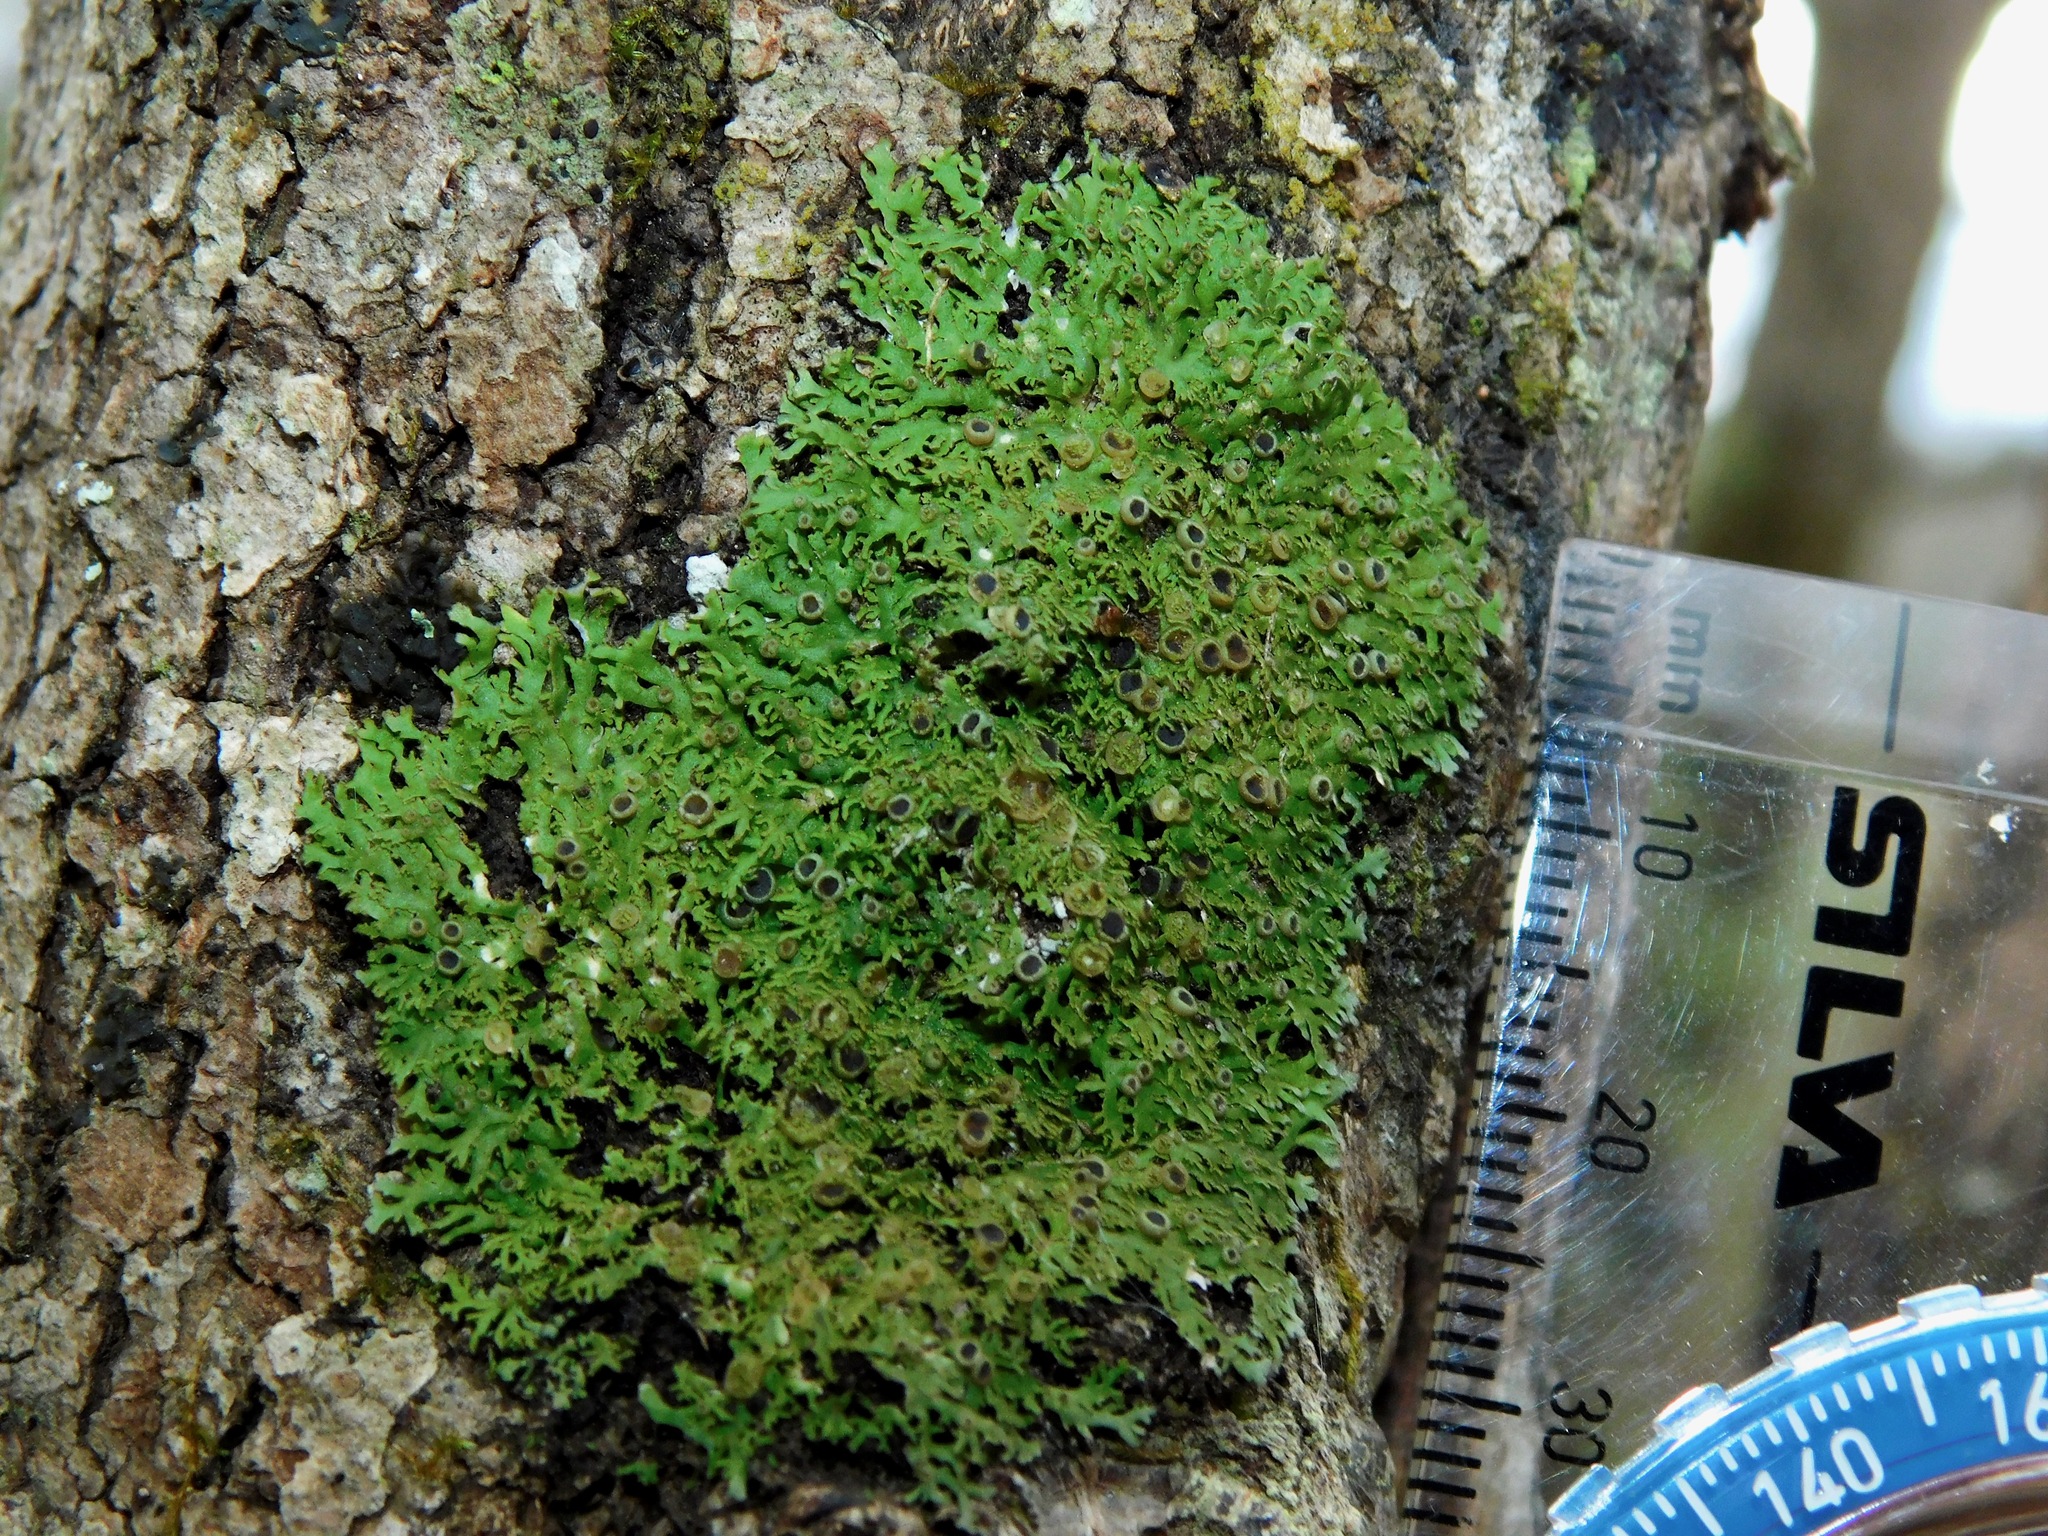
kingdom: Fungi
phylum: Ascomycota
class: Lecanoromycetes
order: Caliciales
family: Physciaceae
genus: Kurokawia
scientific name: Kurokawia palmulata
